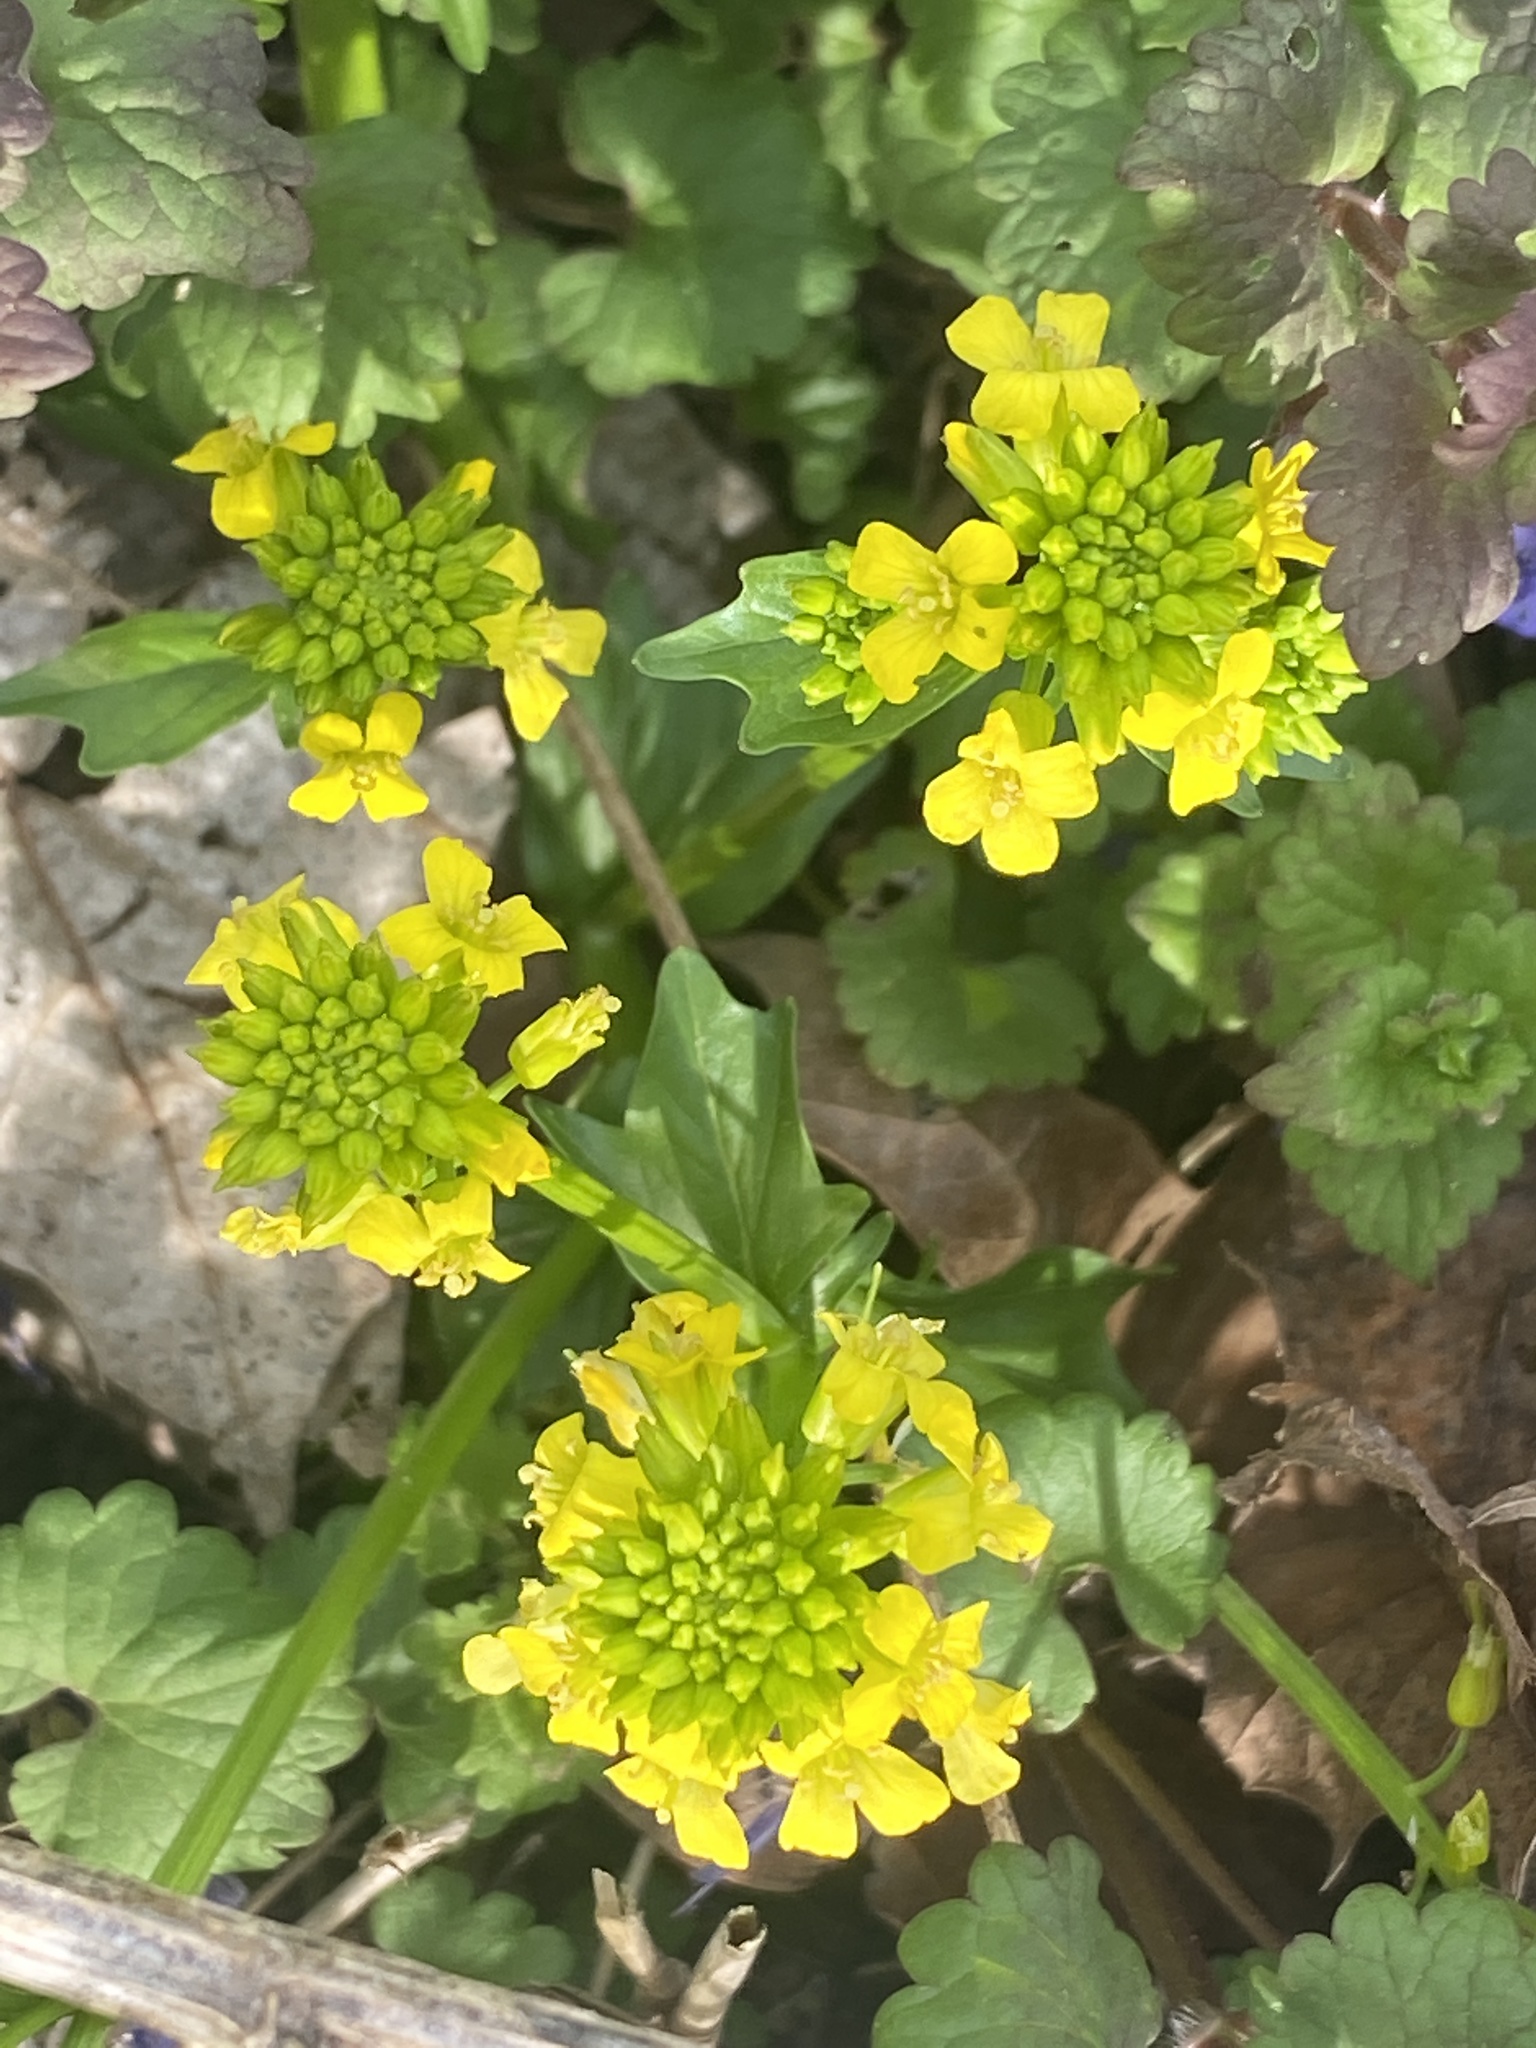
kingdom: Plantae
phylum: Tracheophyta
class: Magnoliopsida
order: Brassicales
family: Brassicaceae
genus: Barbarea
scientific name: Barbarea vulgaris
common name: Cressy-greens
